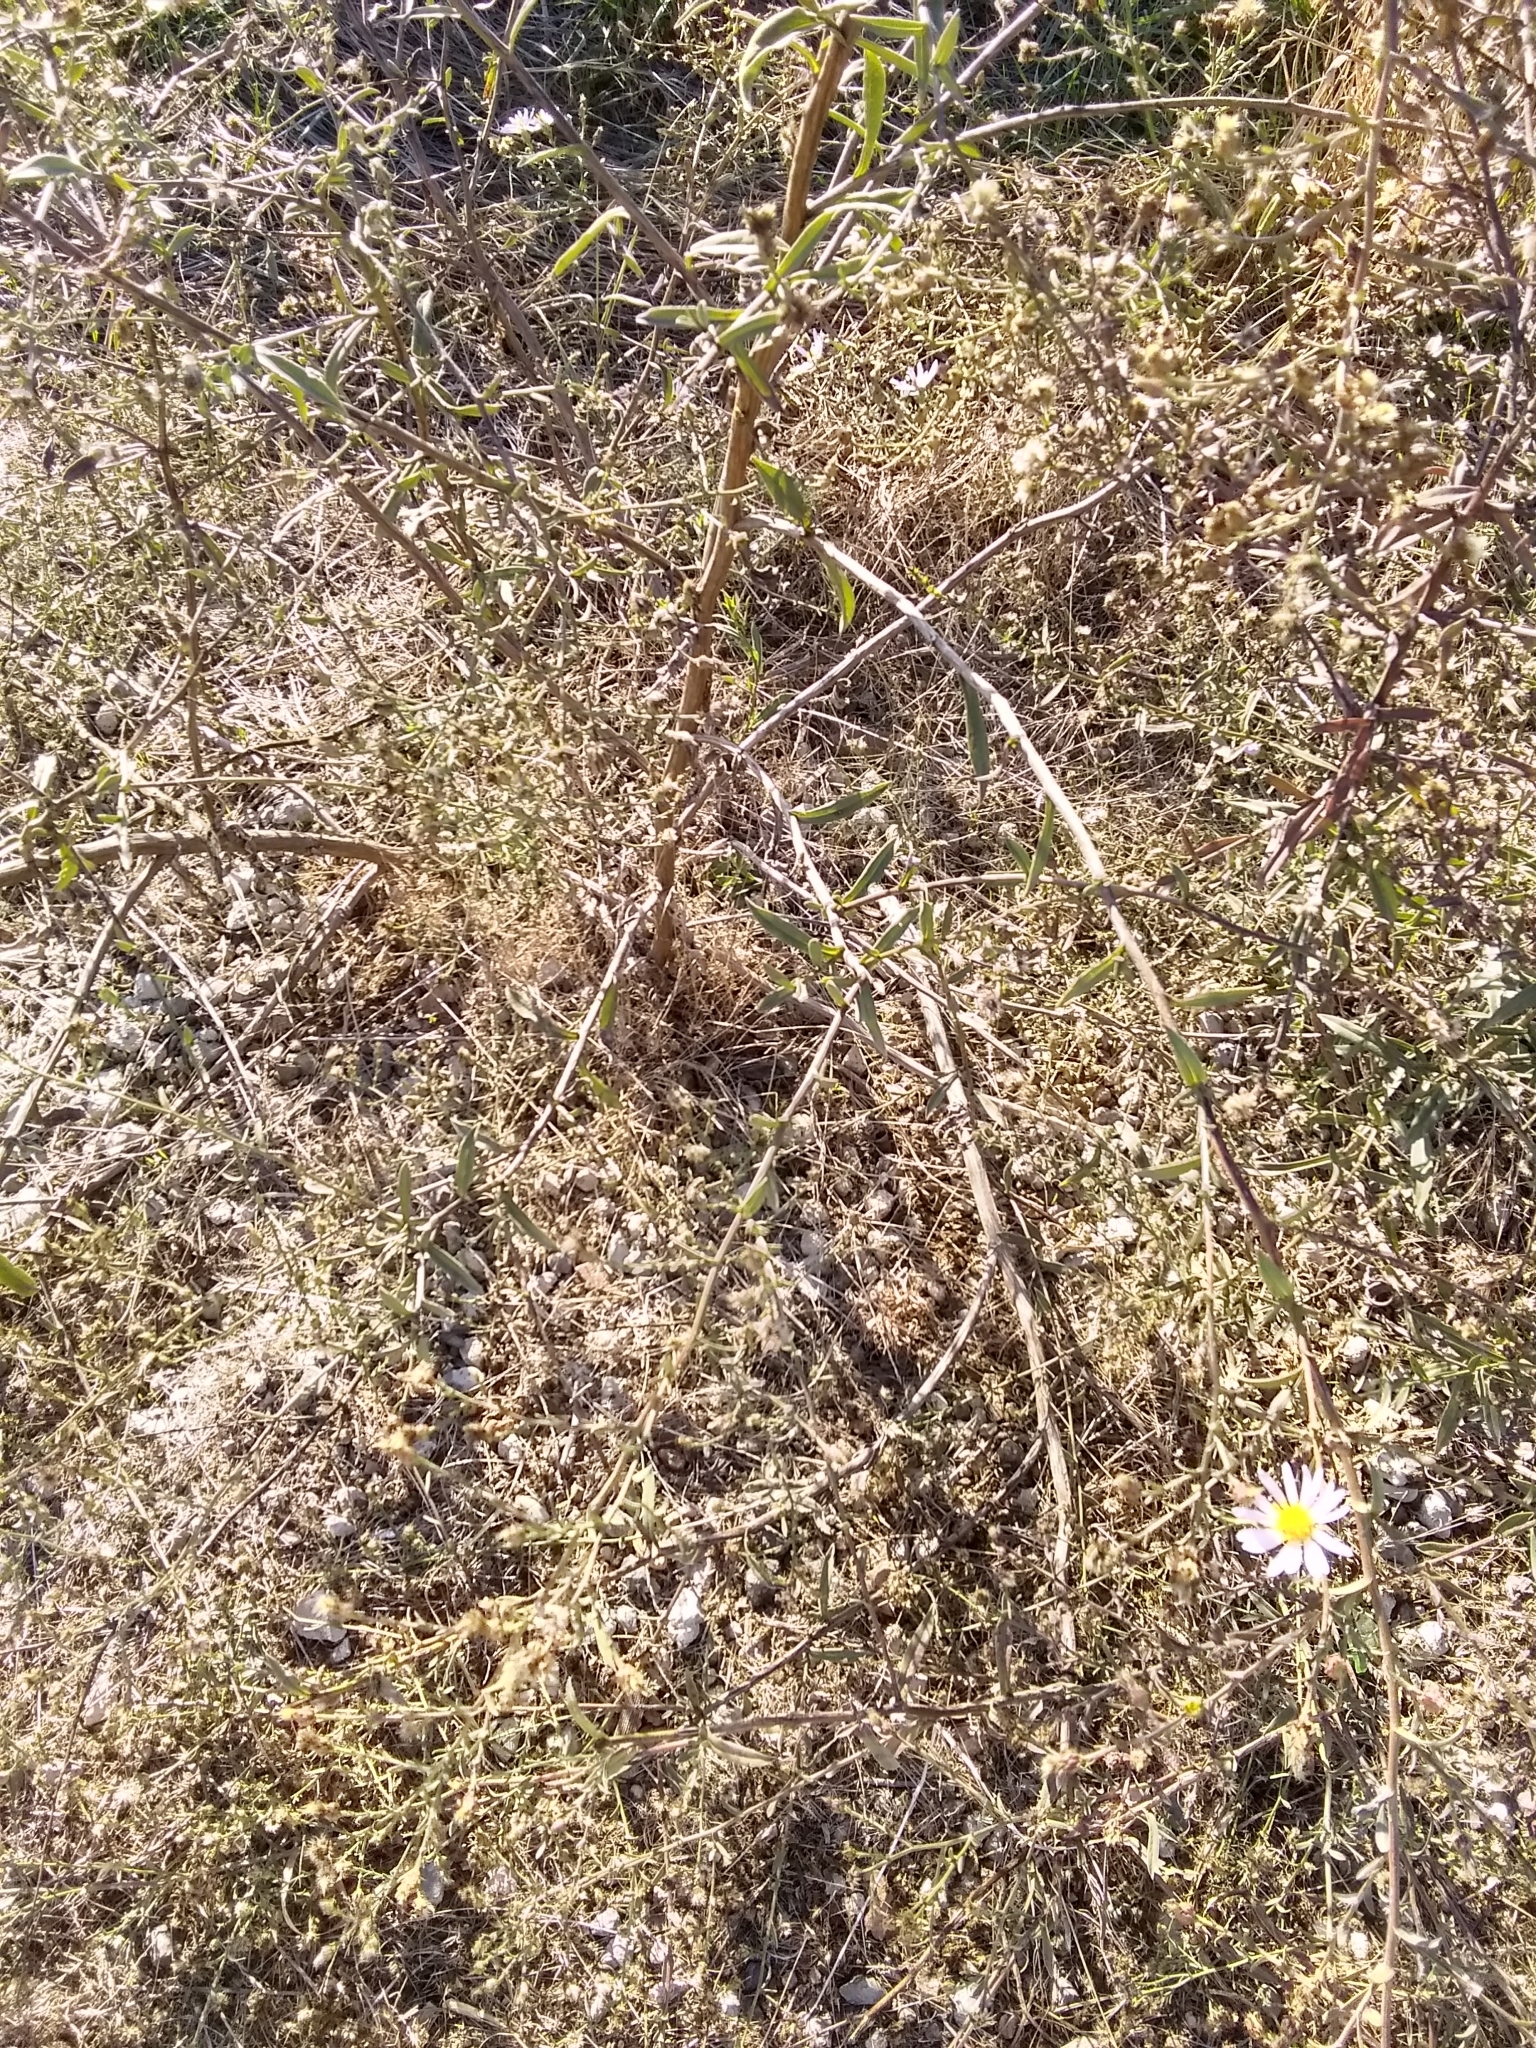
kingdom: Plantae
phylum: Tracheophyta
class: Magnoliopsida
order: Asterales
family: Asteraceae
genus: Symphyotrichum
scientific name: Symphyotrichum chilense
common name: Pacific aster
